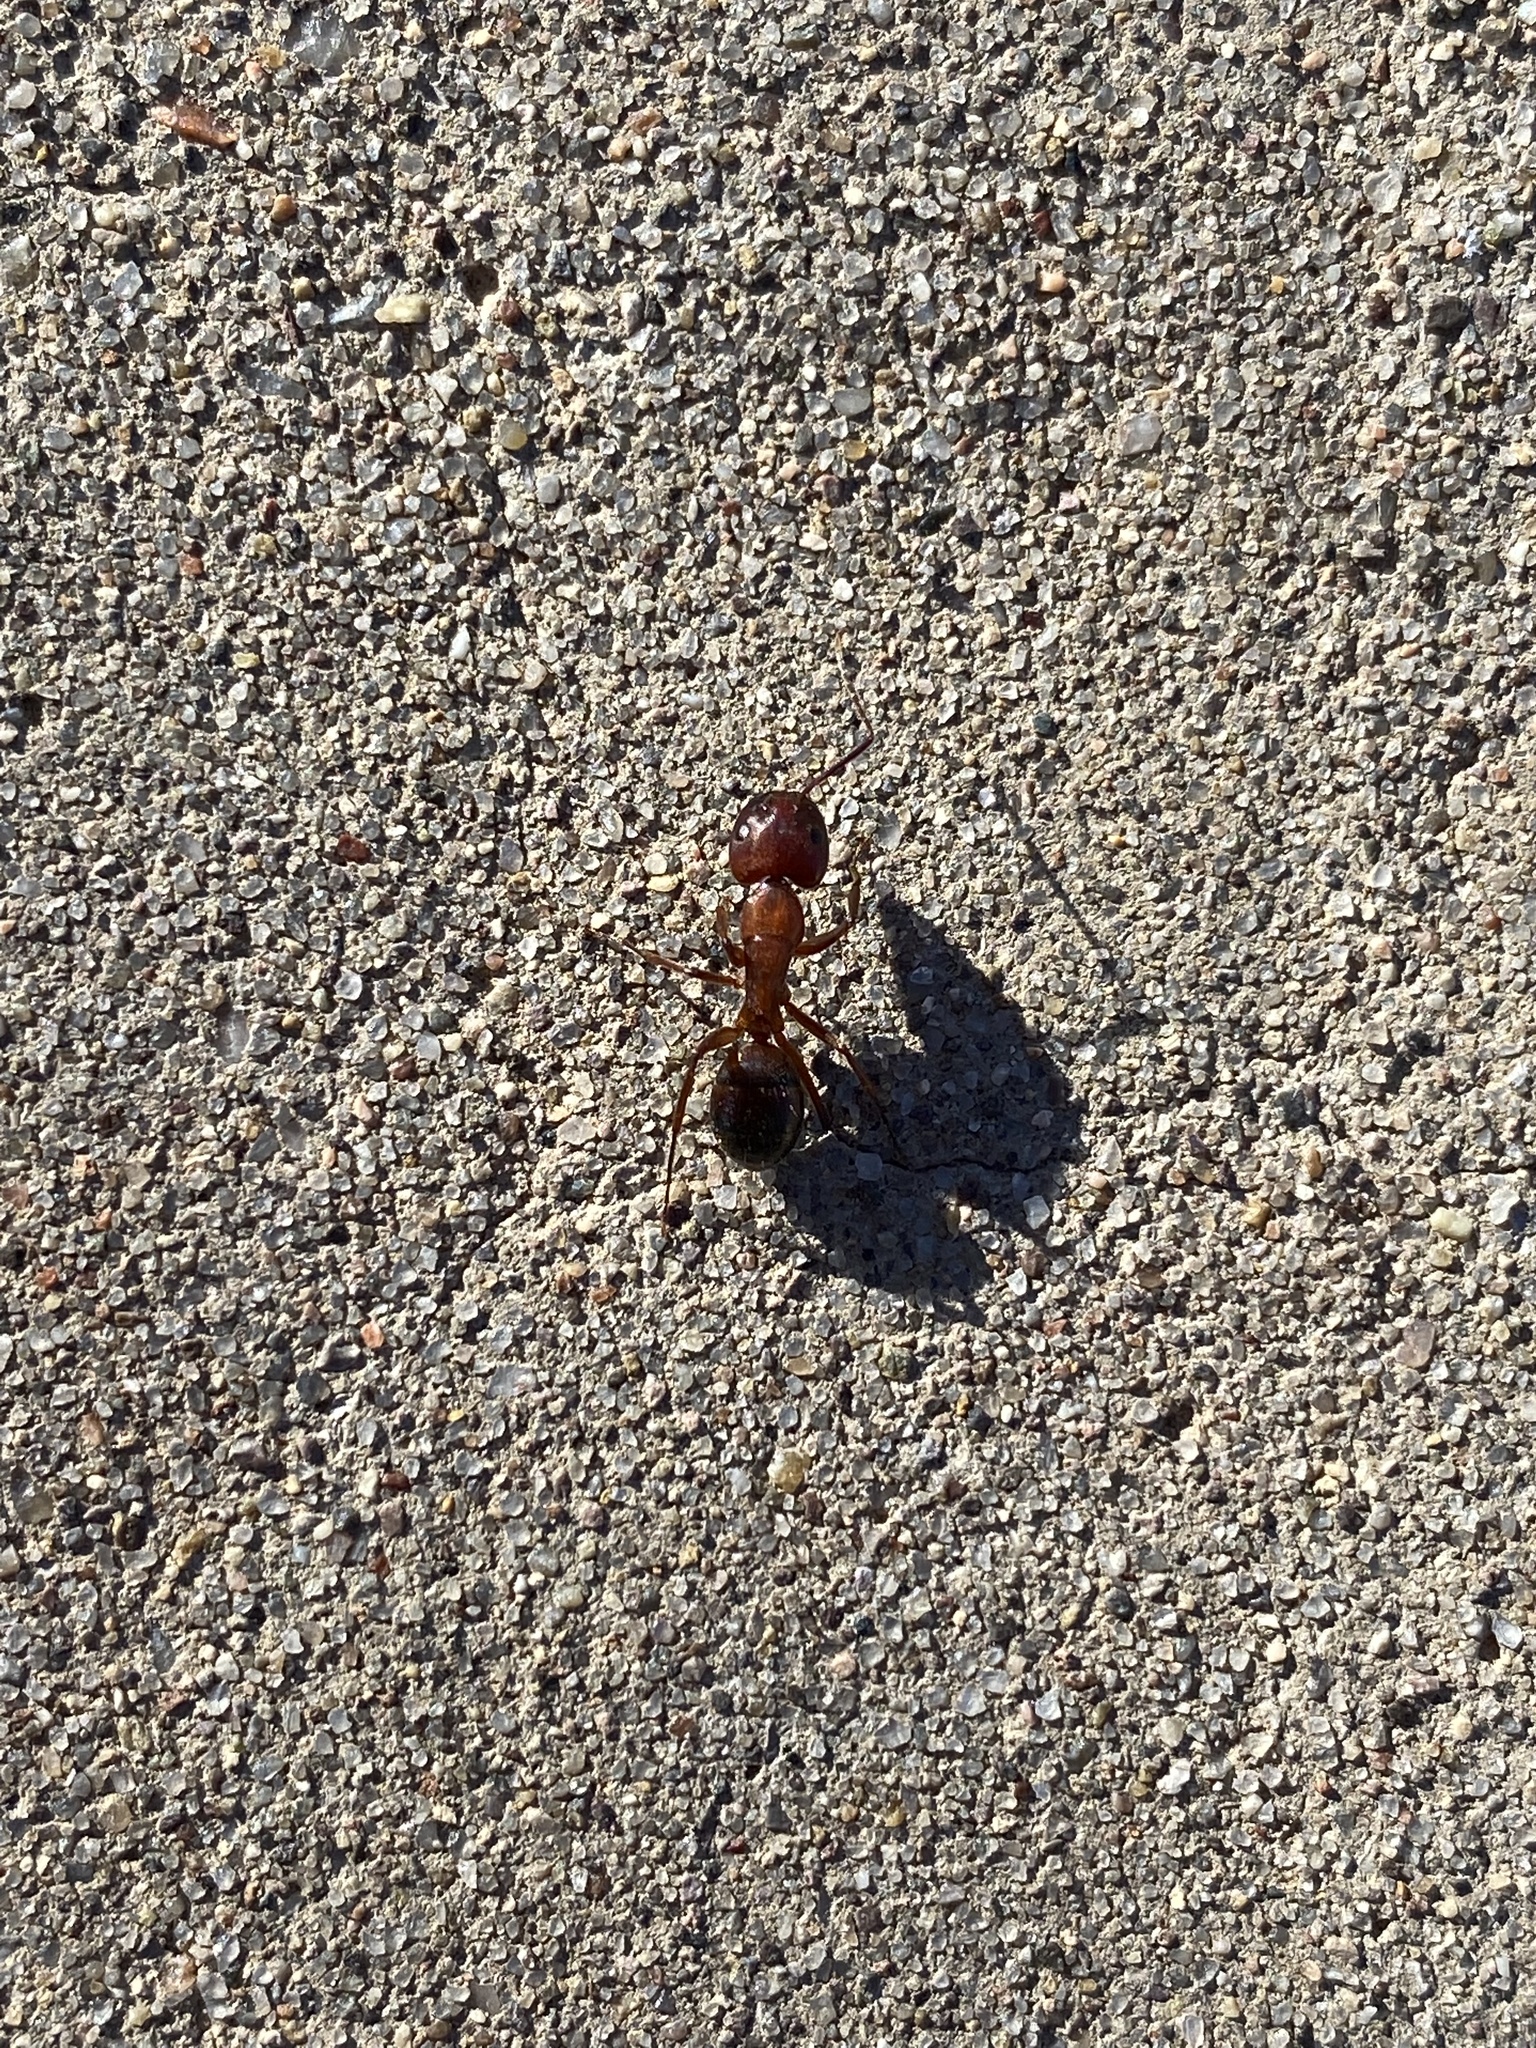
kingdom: Animalia
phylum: Arthropoda
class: Insecta
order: Hymenoptera
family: Formicidae
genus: Camponotus
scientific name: Camponotus
